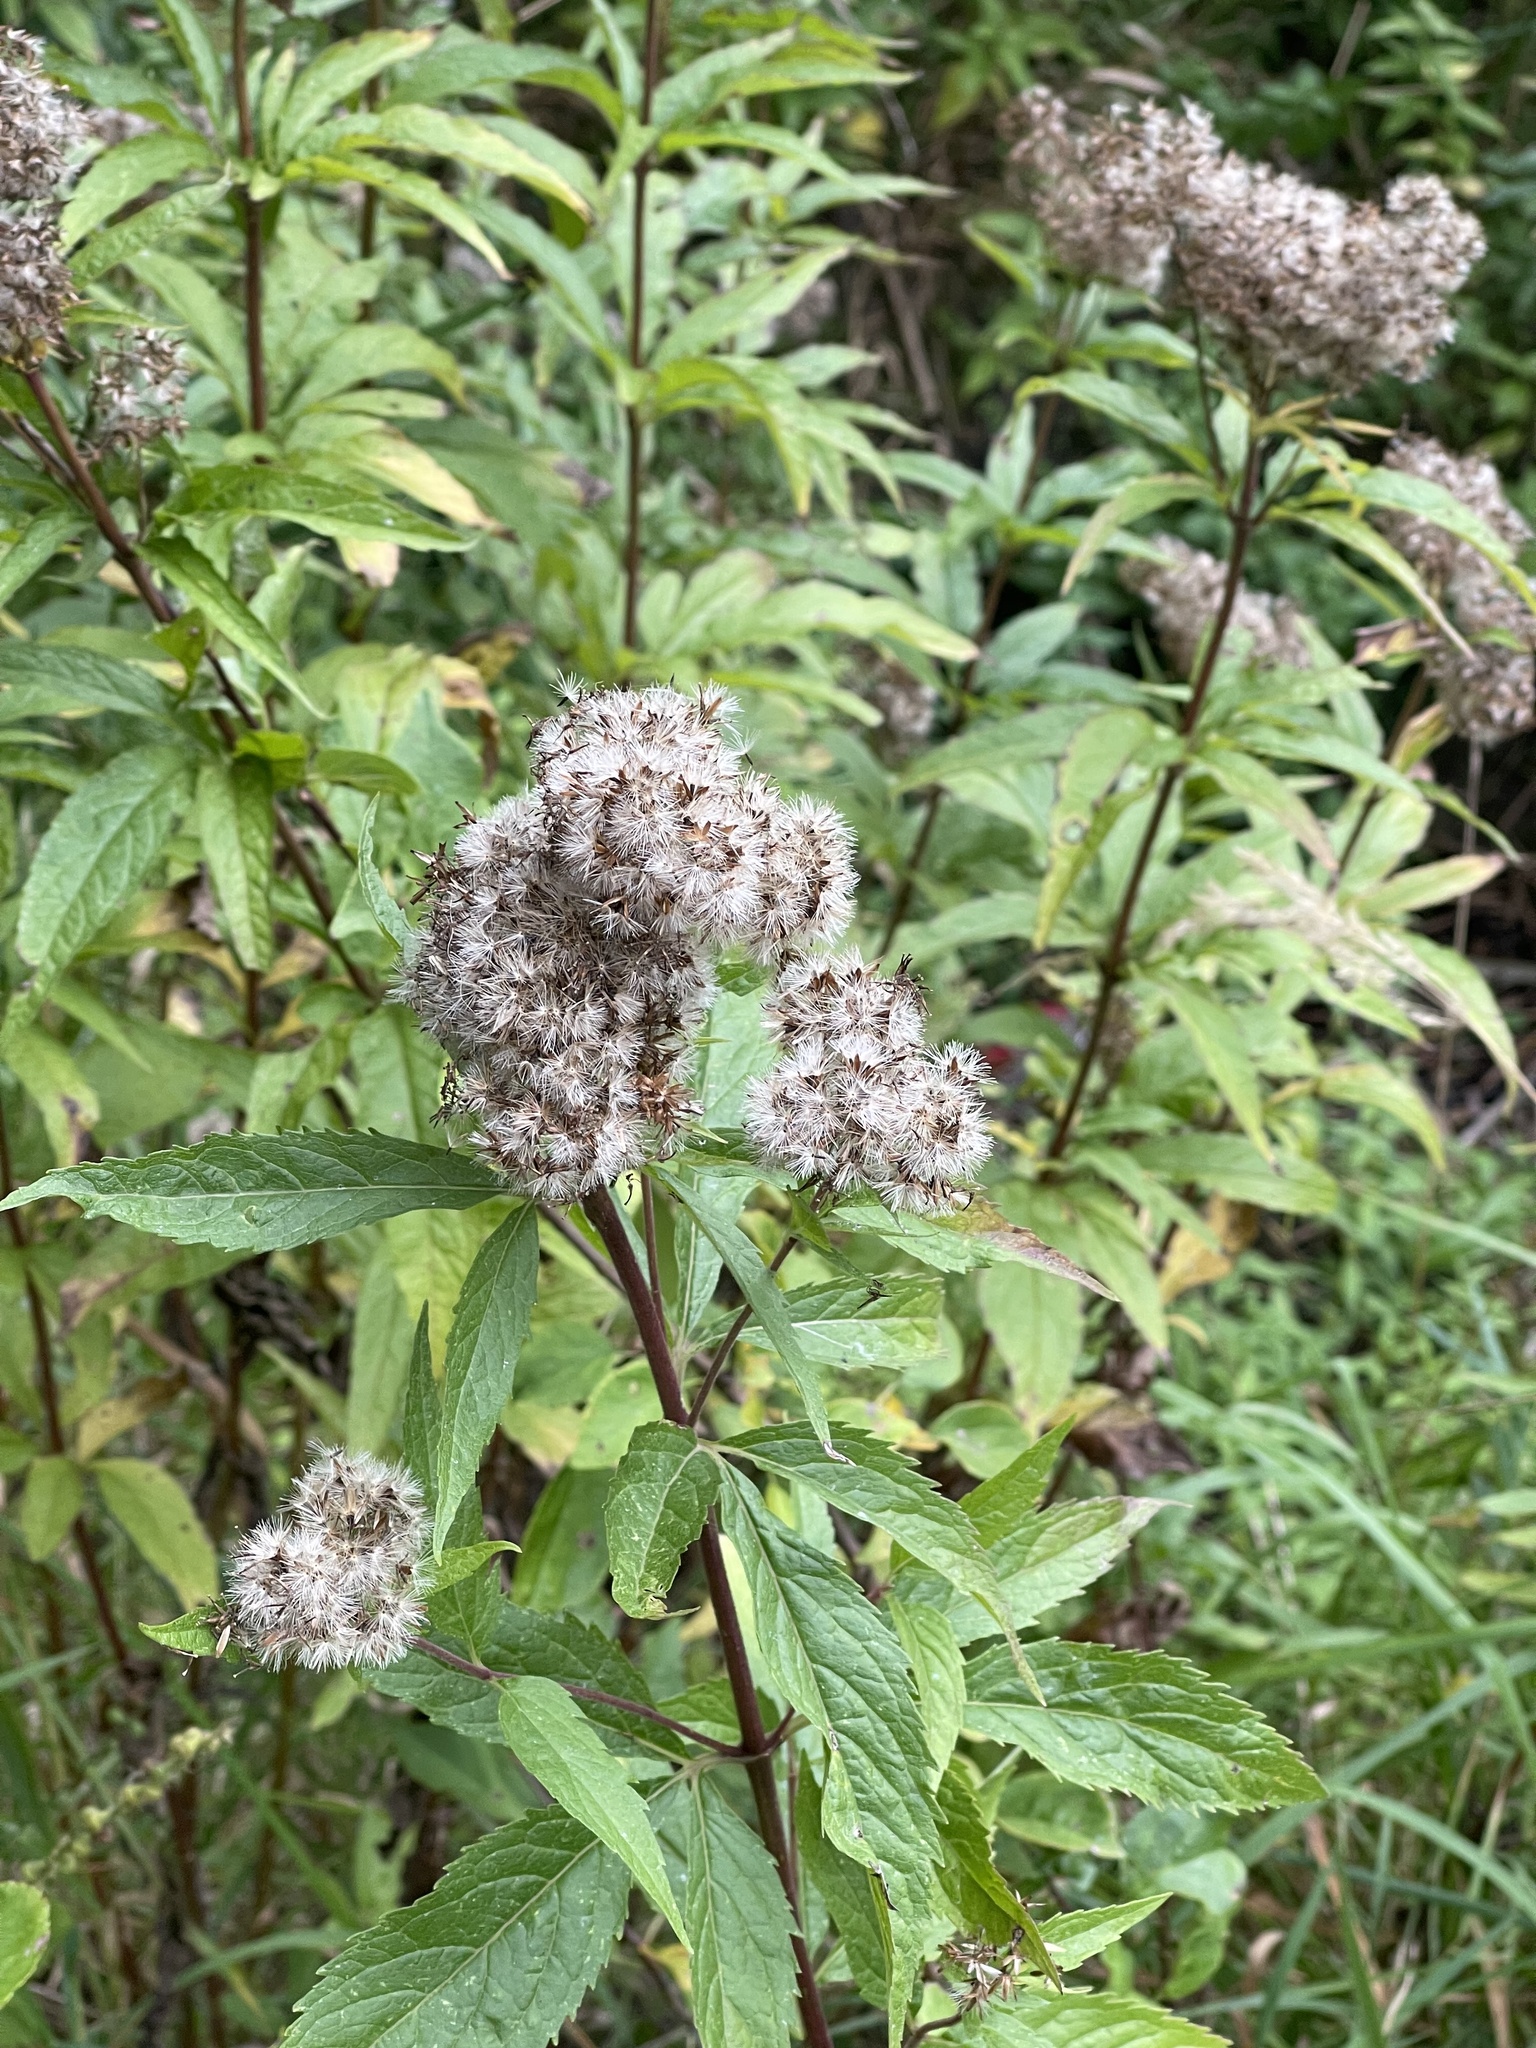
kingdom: Plantae
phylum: Tracheophyta
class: Magnoliopsida
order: Asterales
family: Asteraceae
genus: Eupatorium
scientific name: Eupatorium cannabinum
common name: Hemp-agrimony
